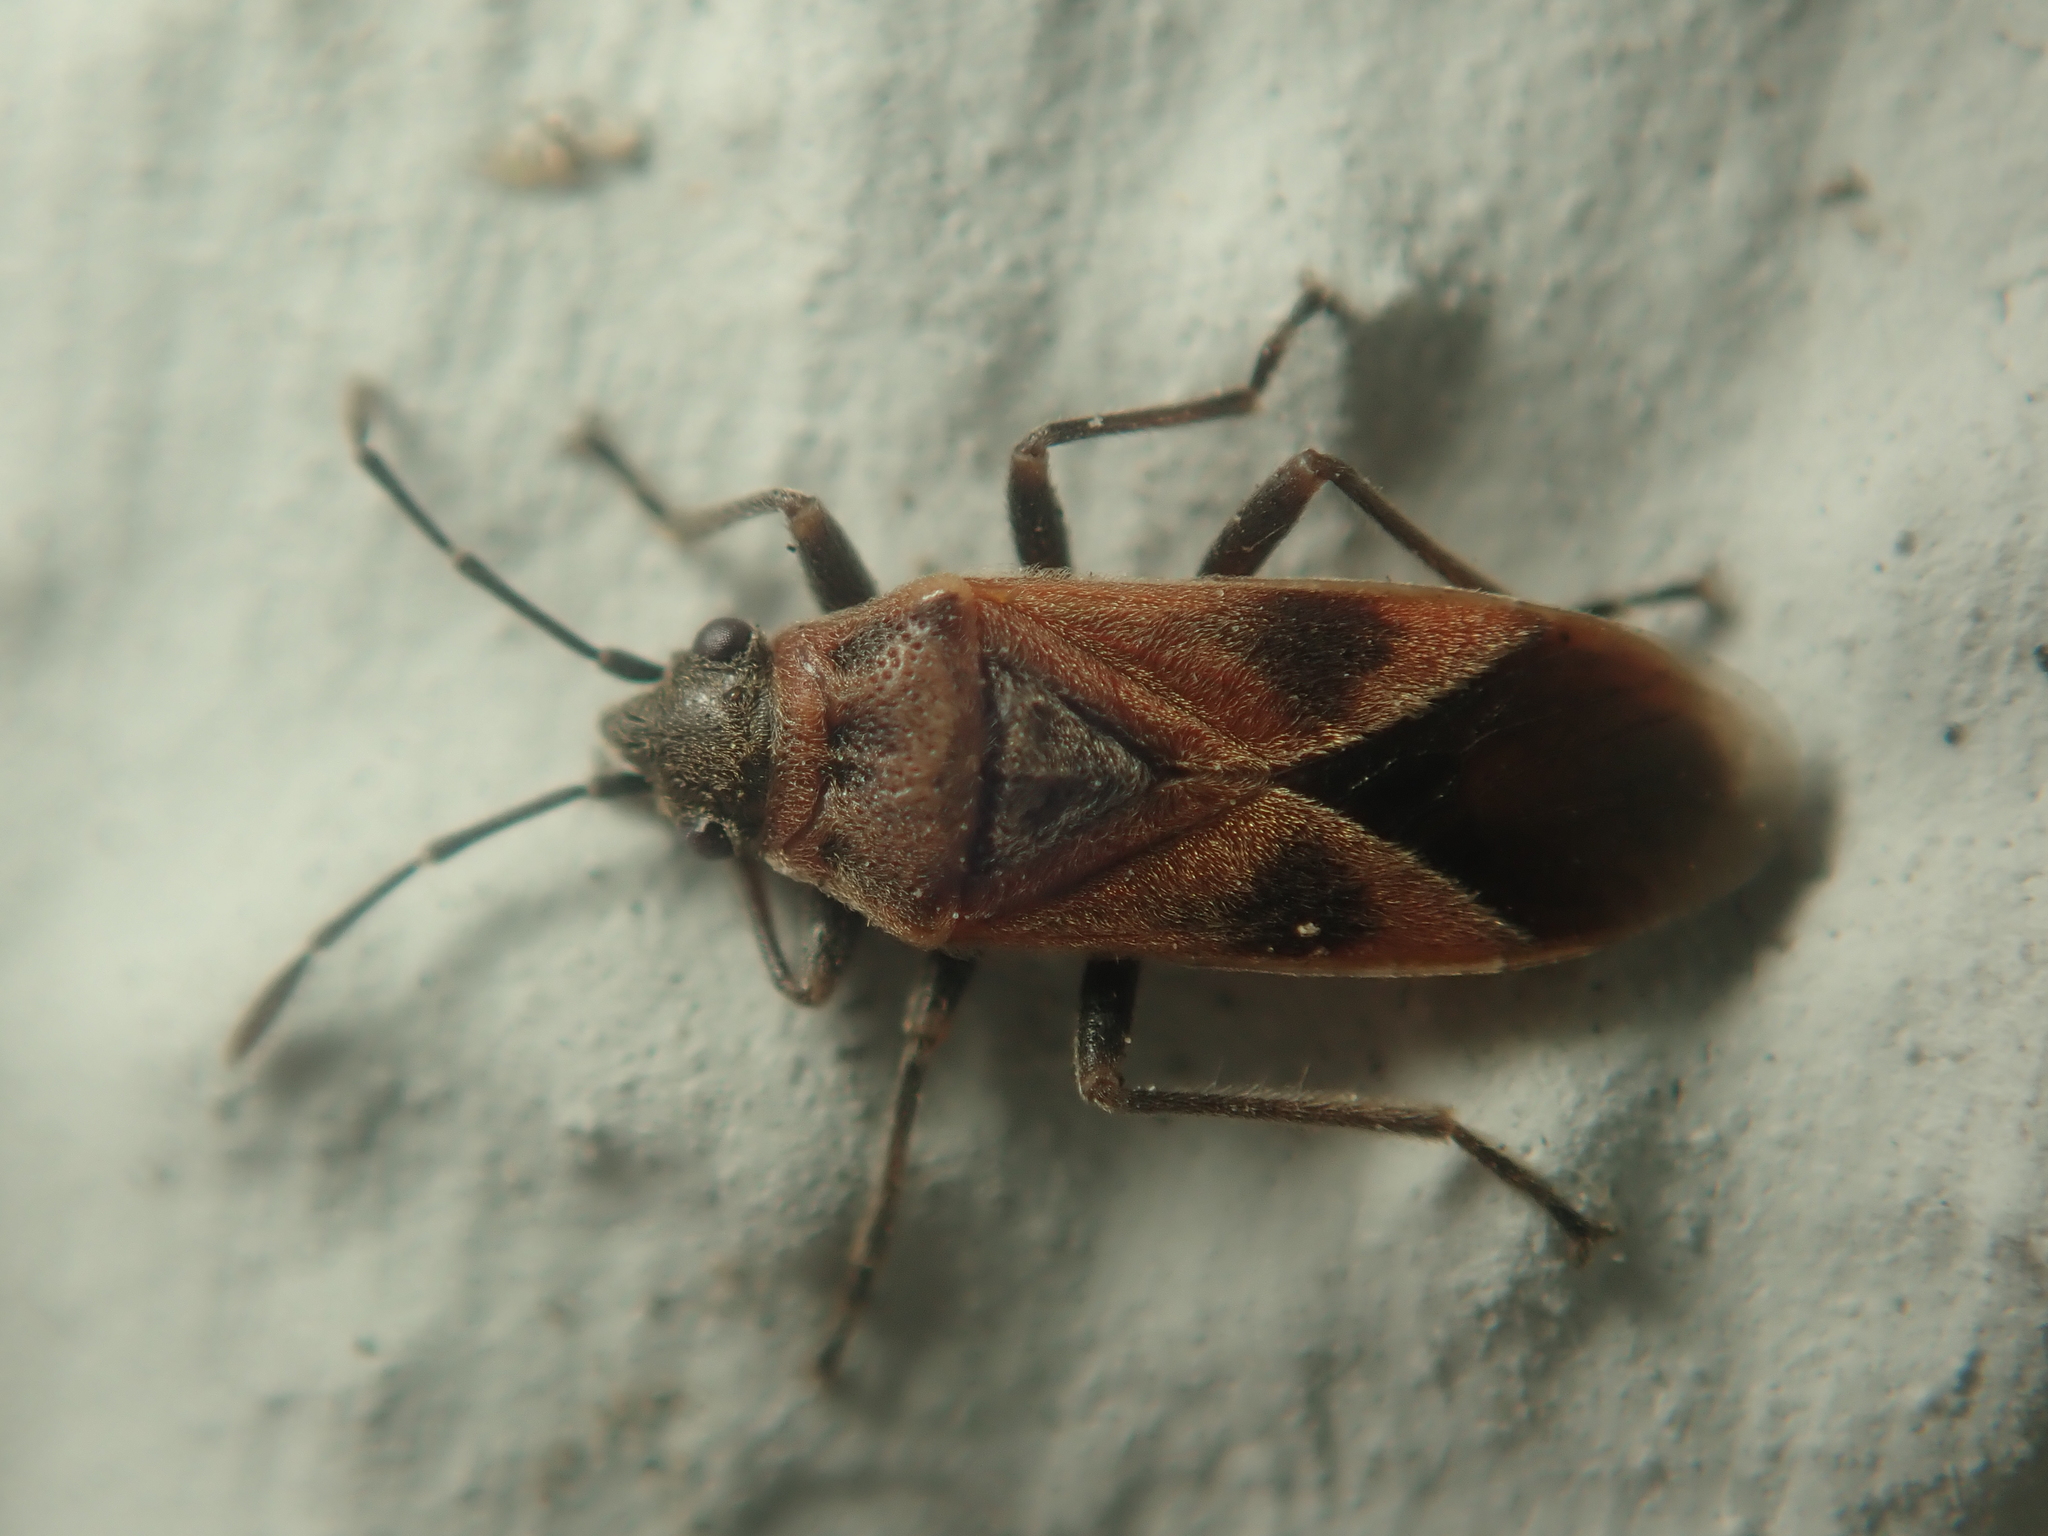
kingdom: Animalia
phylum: Arthropoda
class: Insecta
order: Hemiptera
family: Lygaeidae
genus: Arocatus
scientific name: Arocatus roeselii
